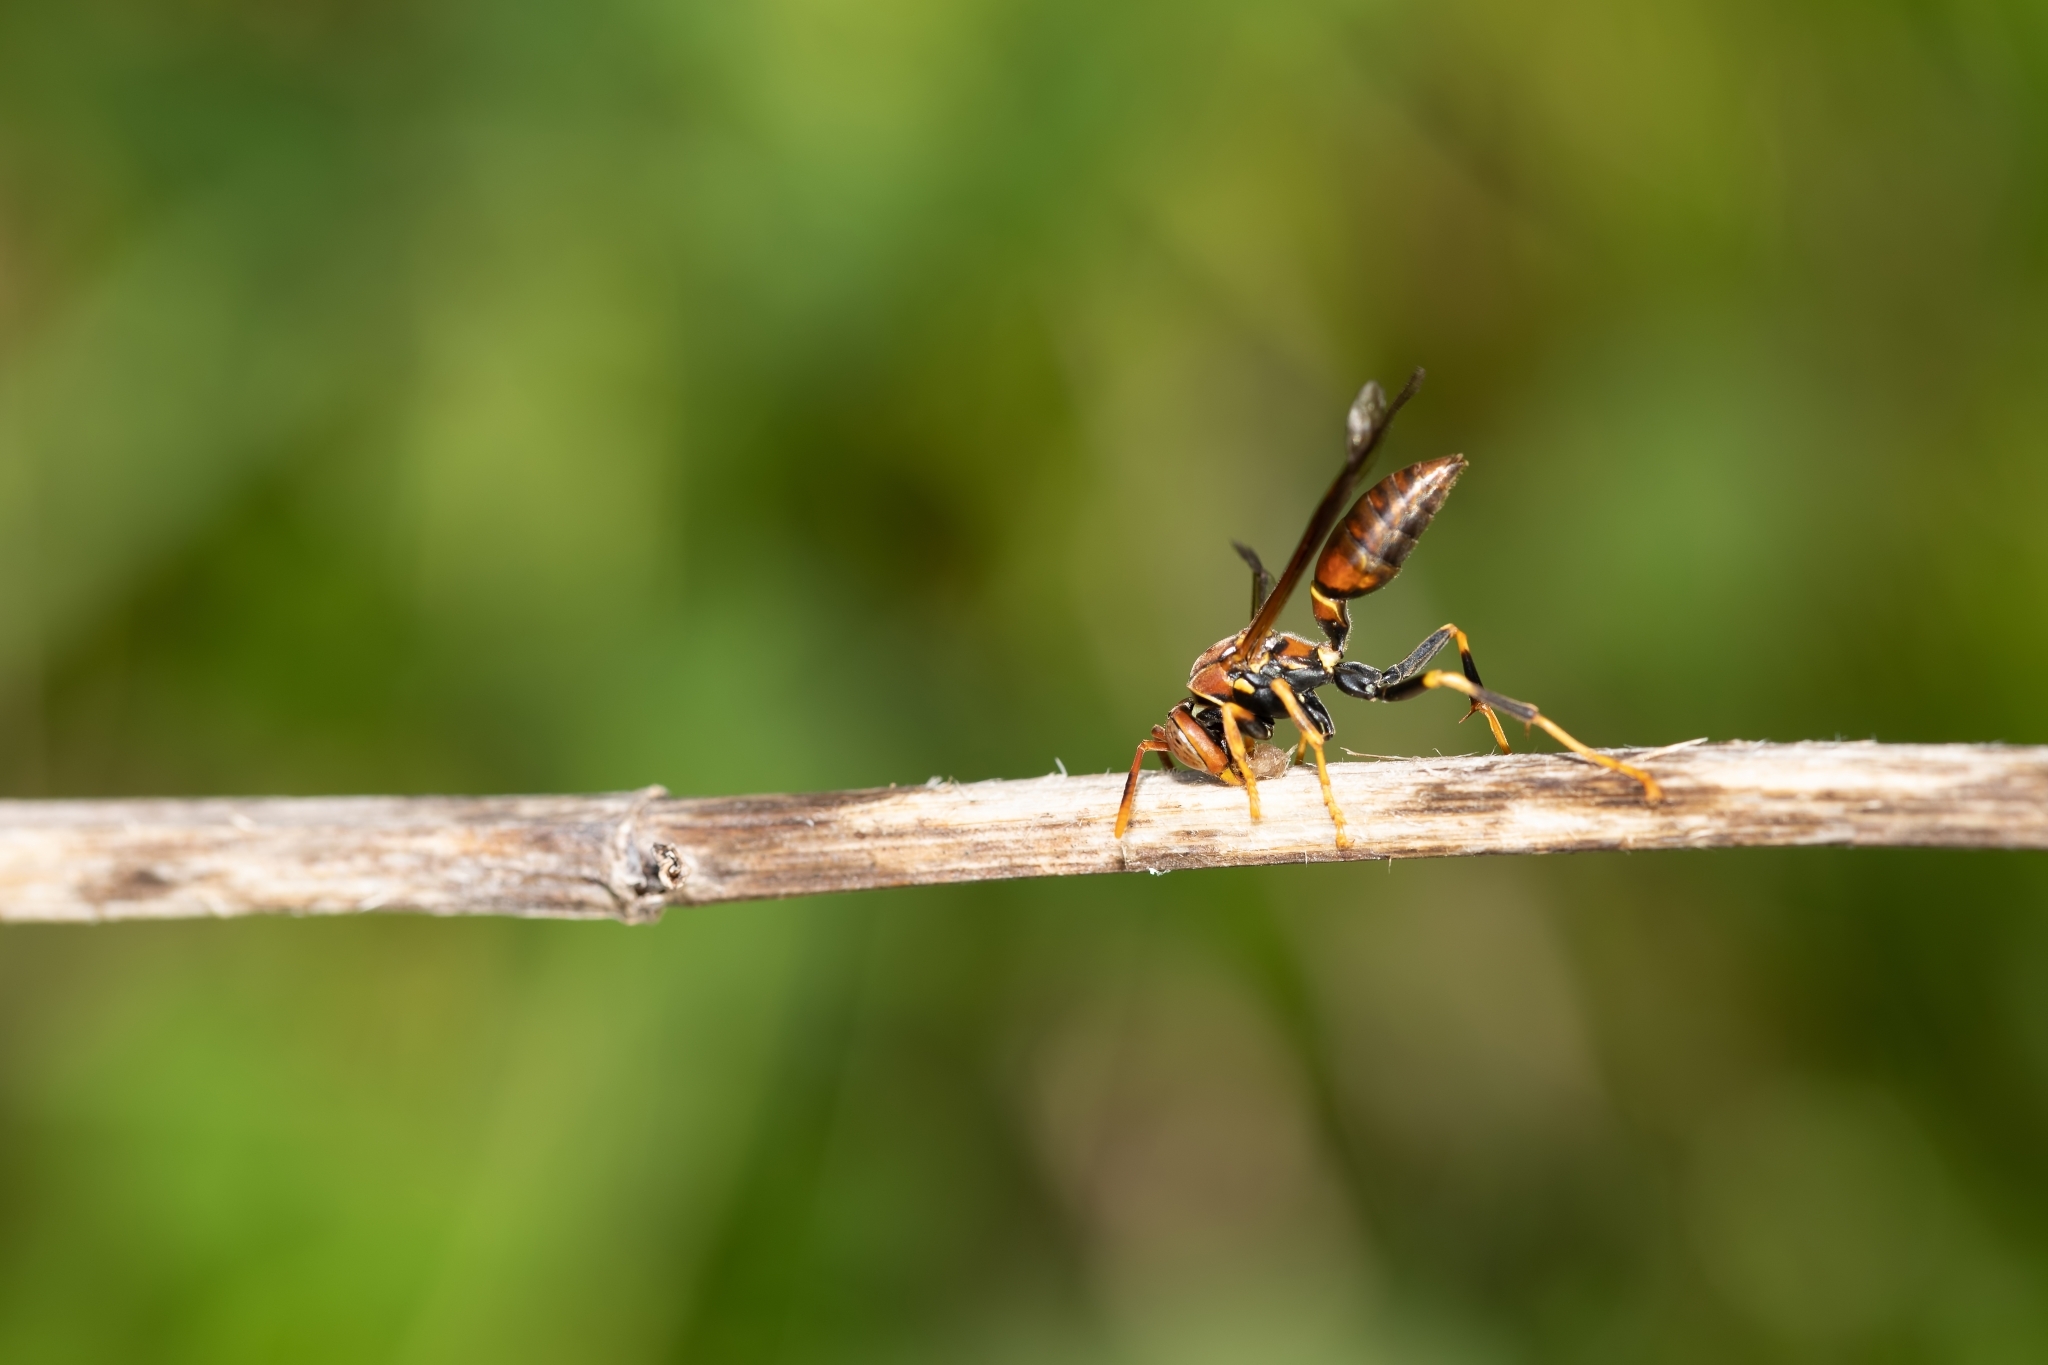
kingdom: Animalia
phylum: Arthropoda
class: Insecta
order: Hymenoptera
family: Eumenidae
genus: Polistes
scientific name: Polistes bahamensis
